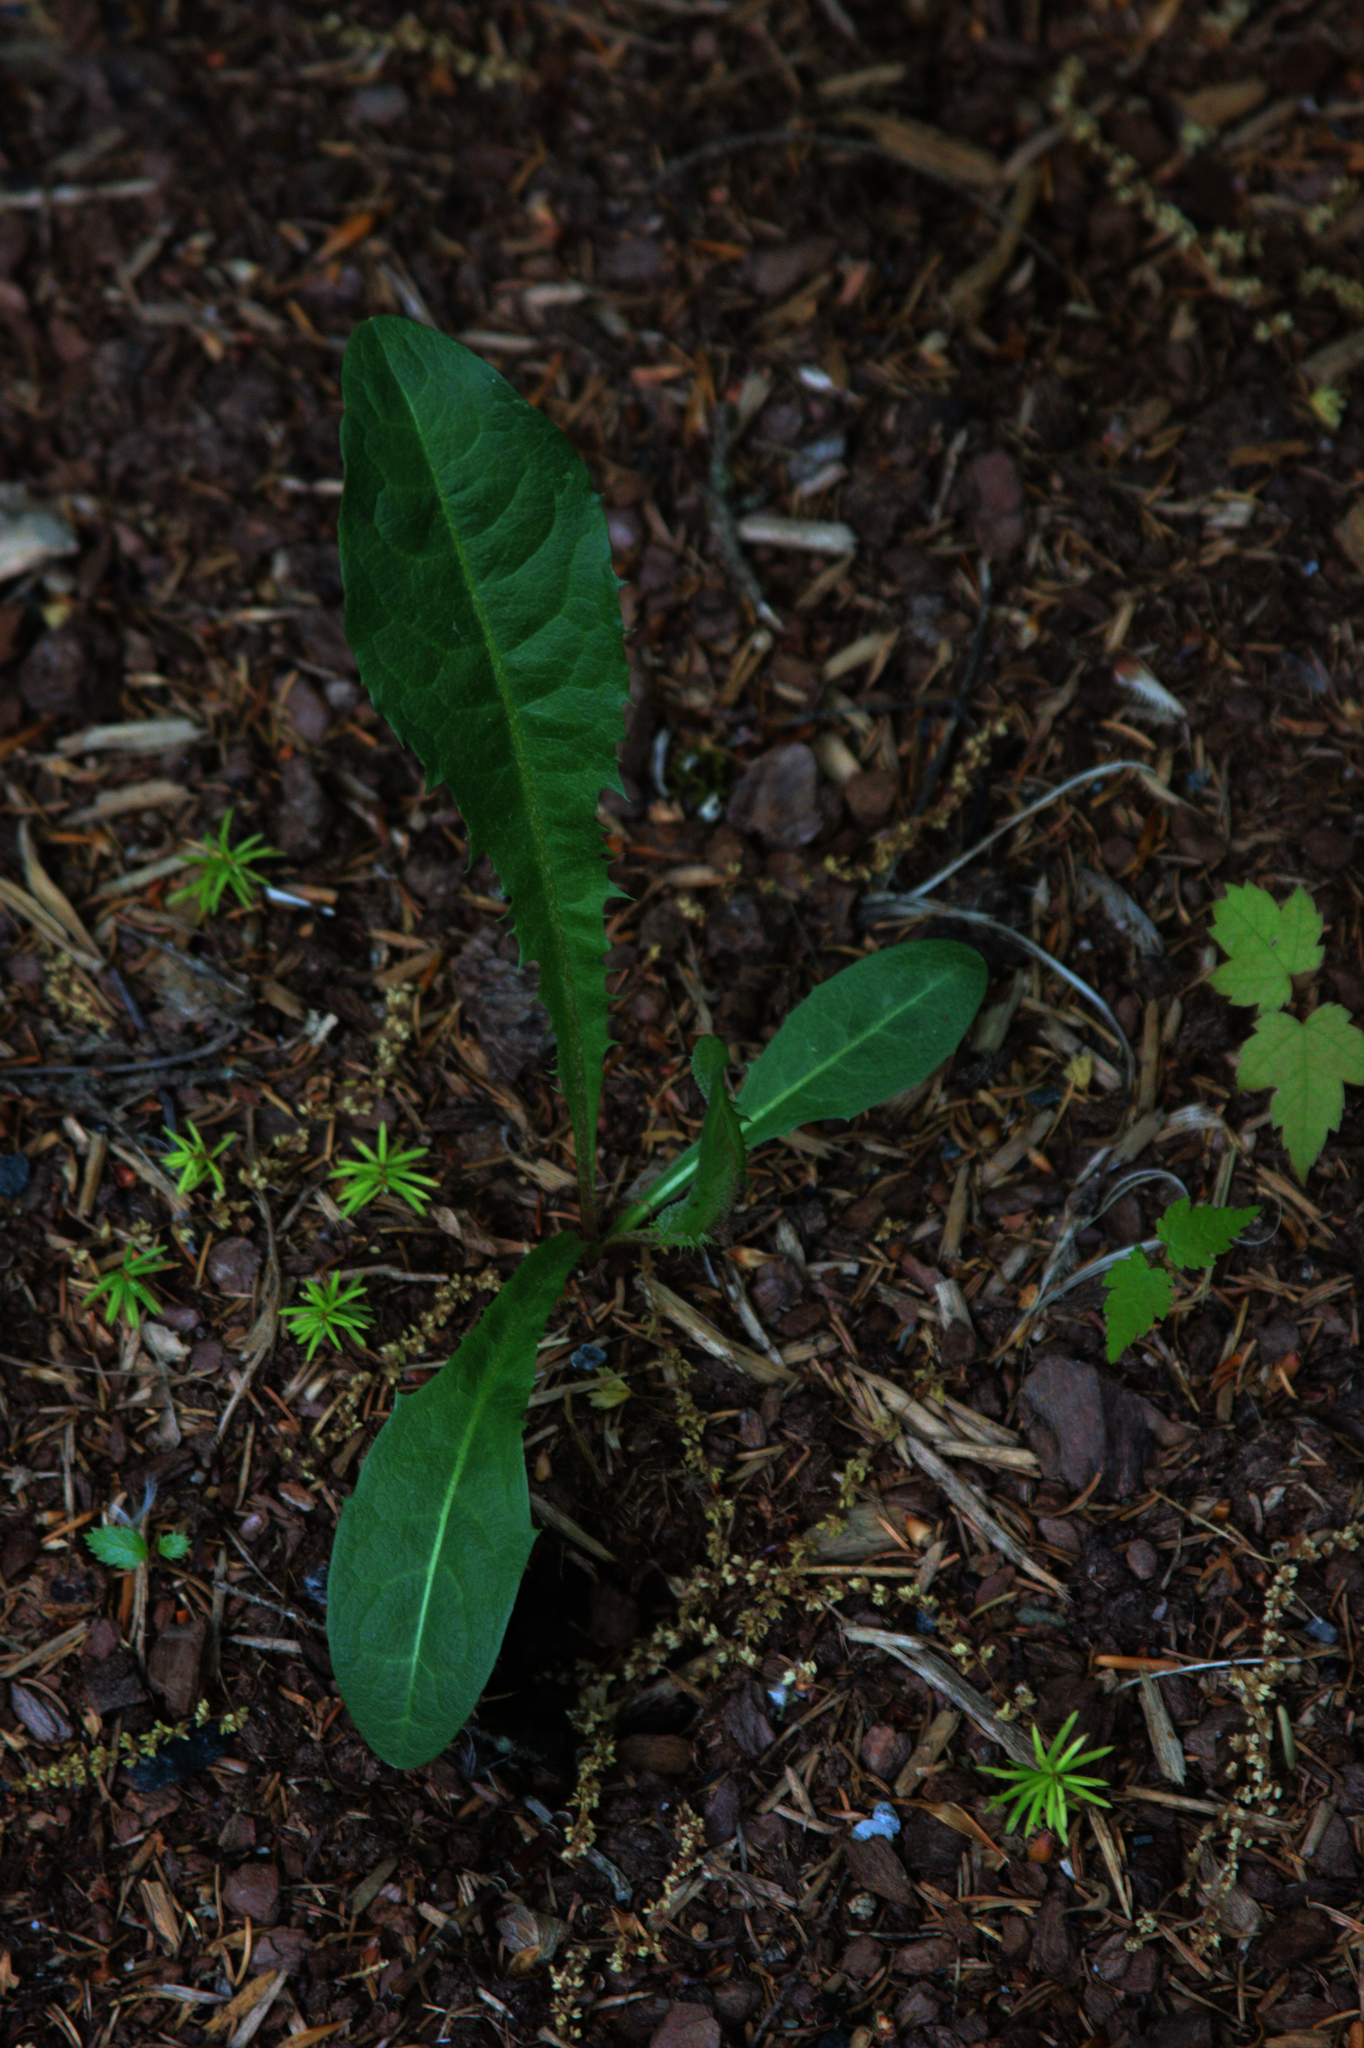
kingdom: Plantae
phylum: Tracheophyta
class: Magnoliopsida
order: Asterales
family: Asteraceae
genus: Taraxacum
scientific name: Taraxacum officinale
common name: Common dandelion
